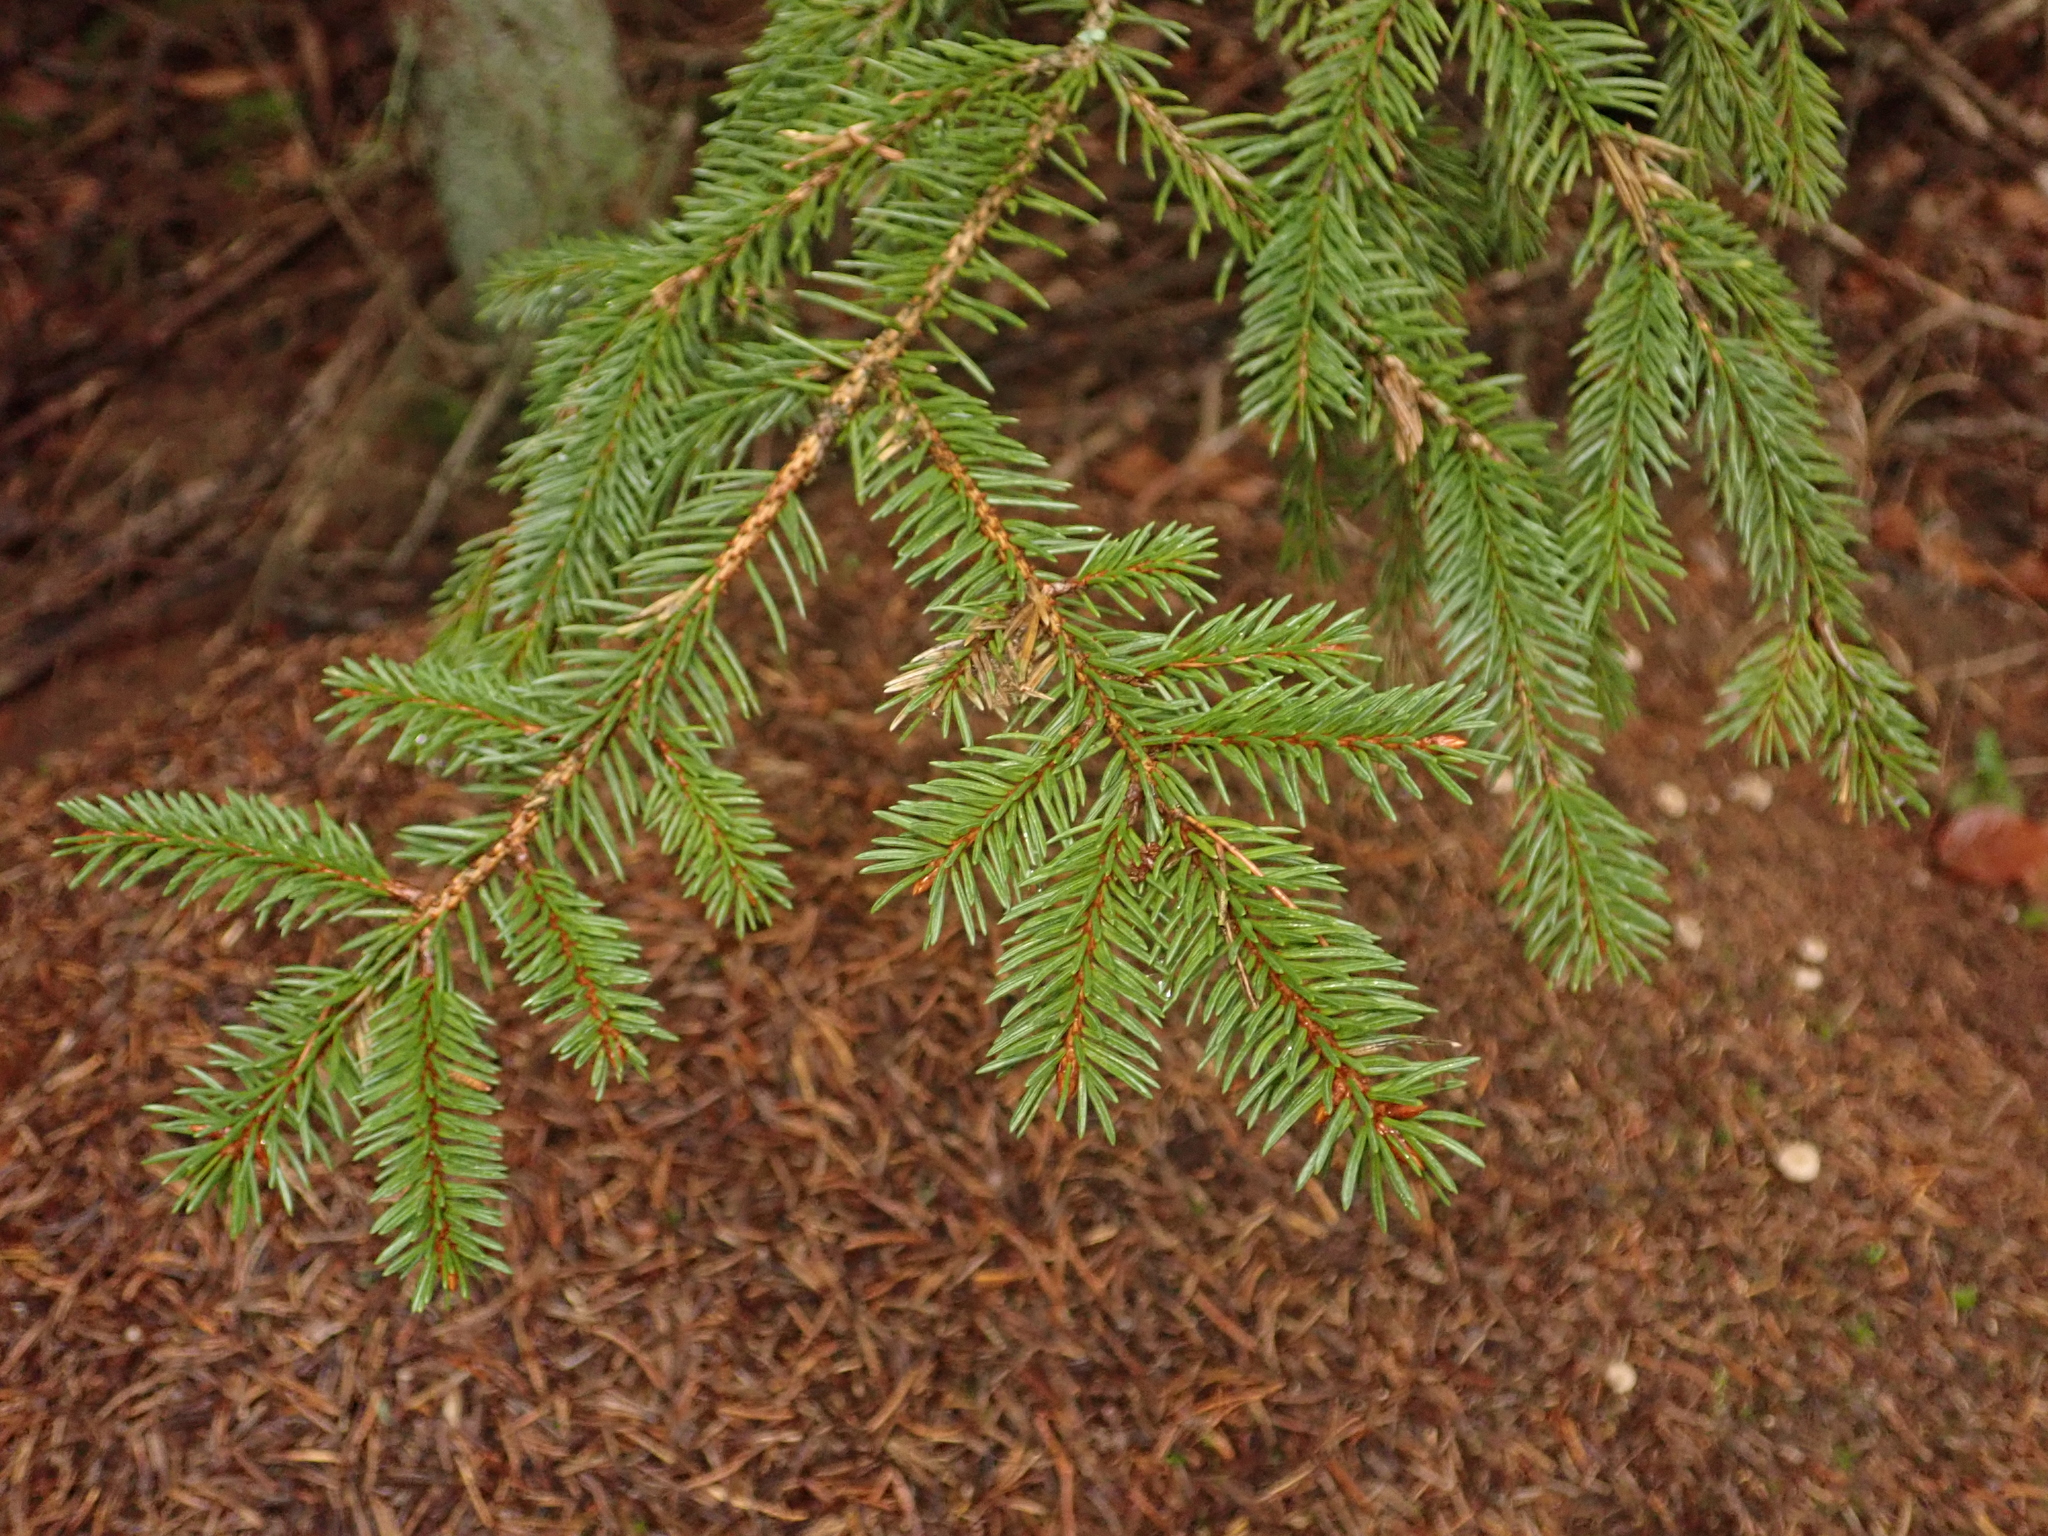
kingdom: Plantae
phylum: Tracheophyta
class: Pinopsida
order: Pinales
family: Pinaceae
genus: Picea
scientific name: Picea abies
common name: Norway spruce
